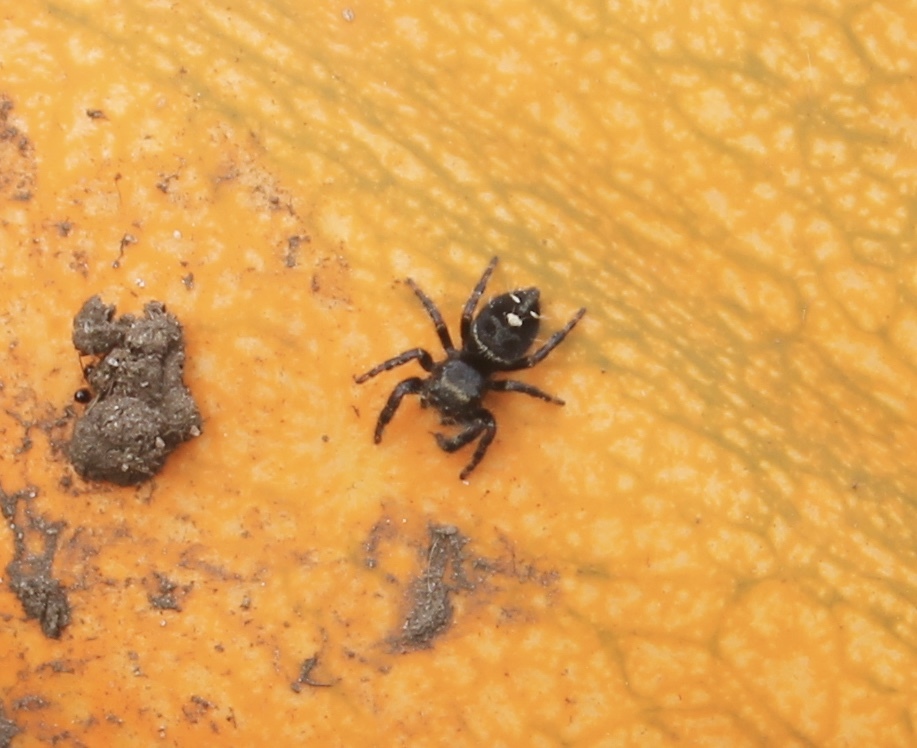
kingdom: Animalia
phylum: Arthropoda
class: Arachnida
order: Araneae
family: Salticidae
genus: Phidippus
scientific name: Phidippus audax
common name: Bold jumper
